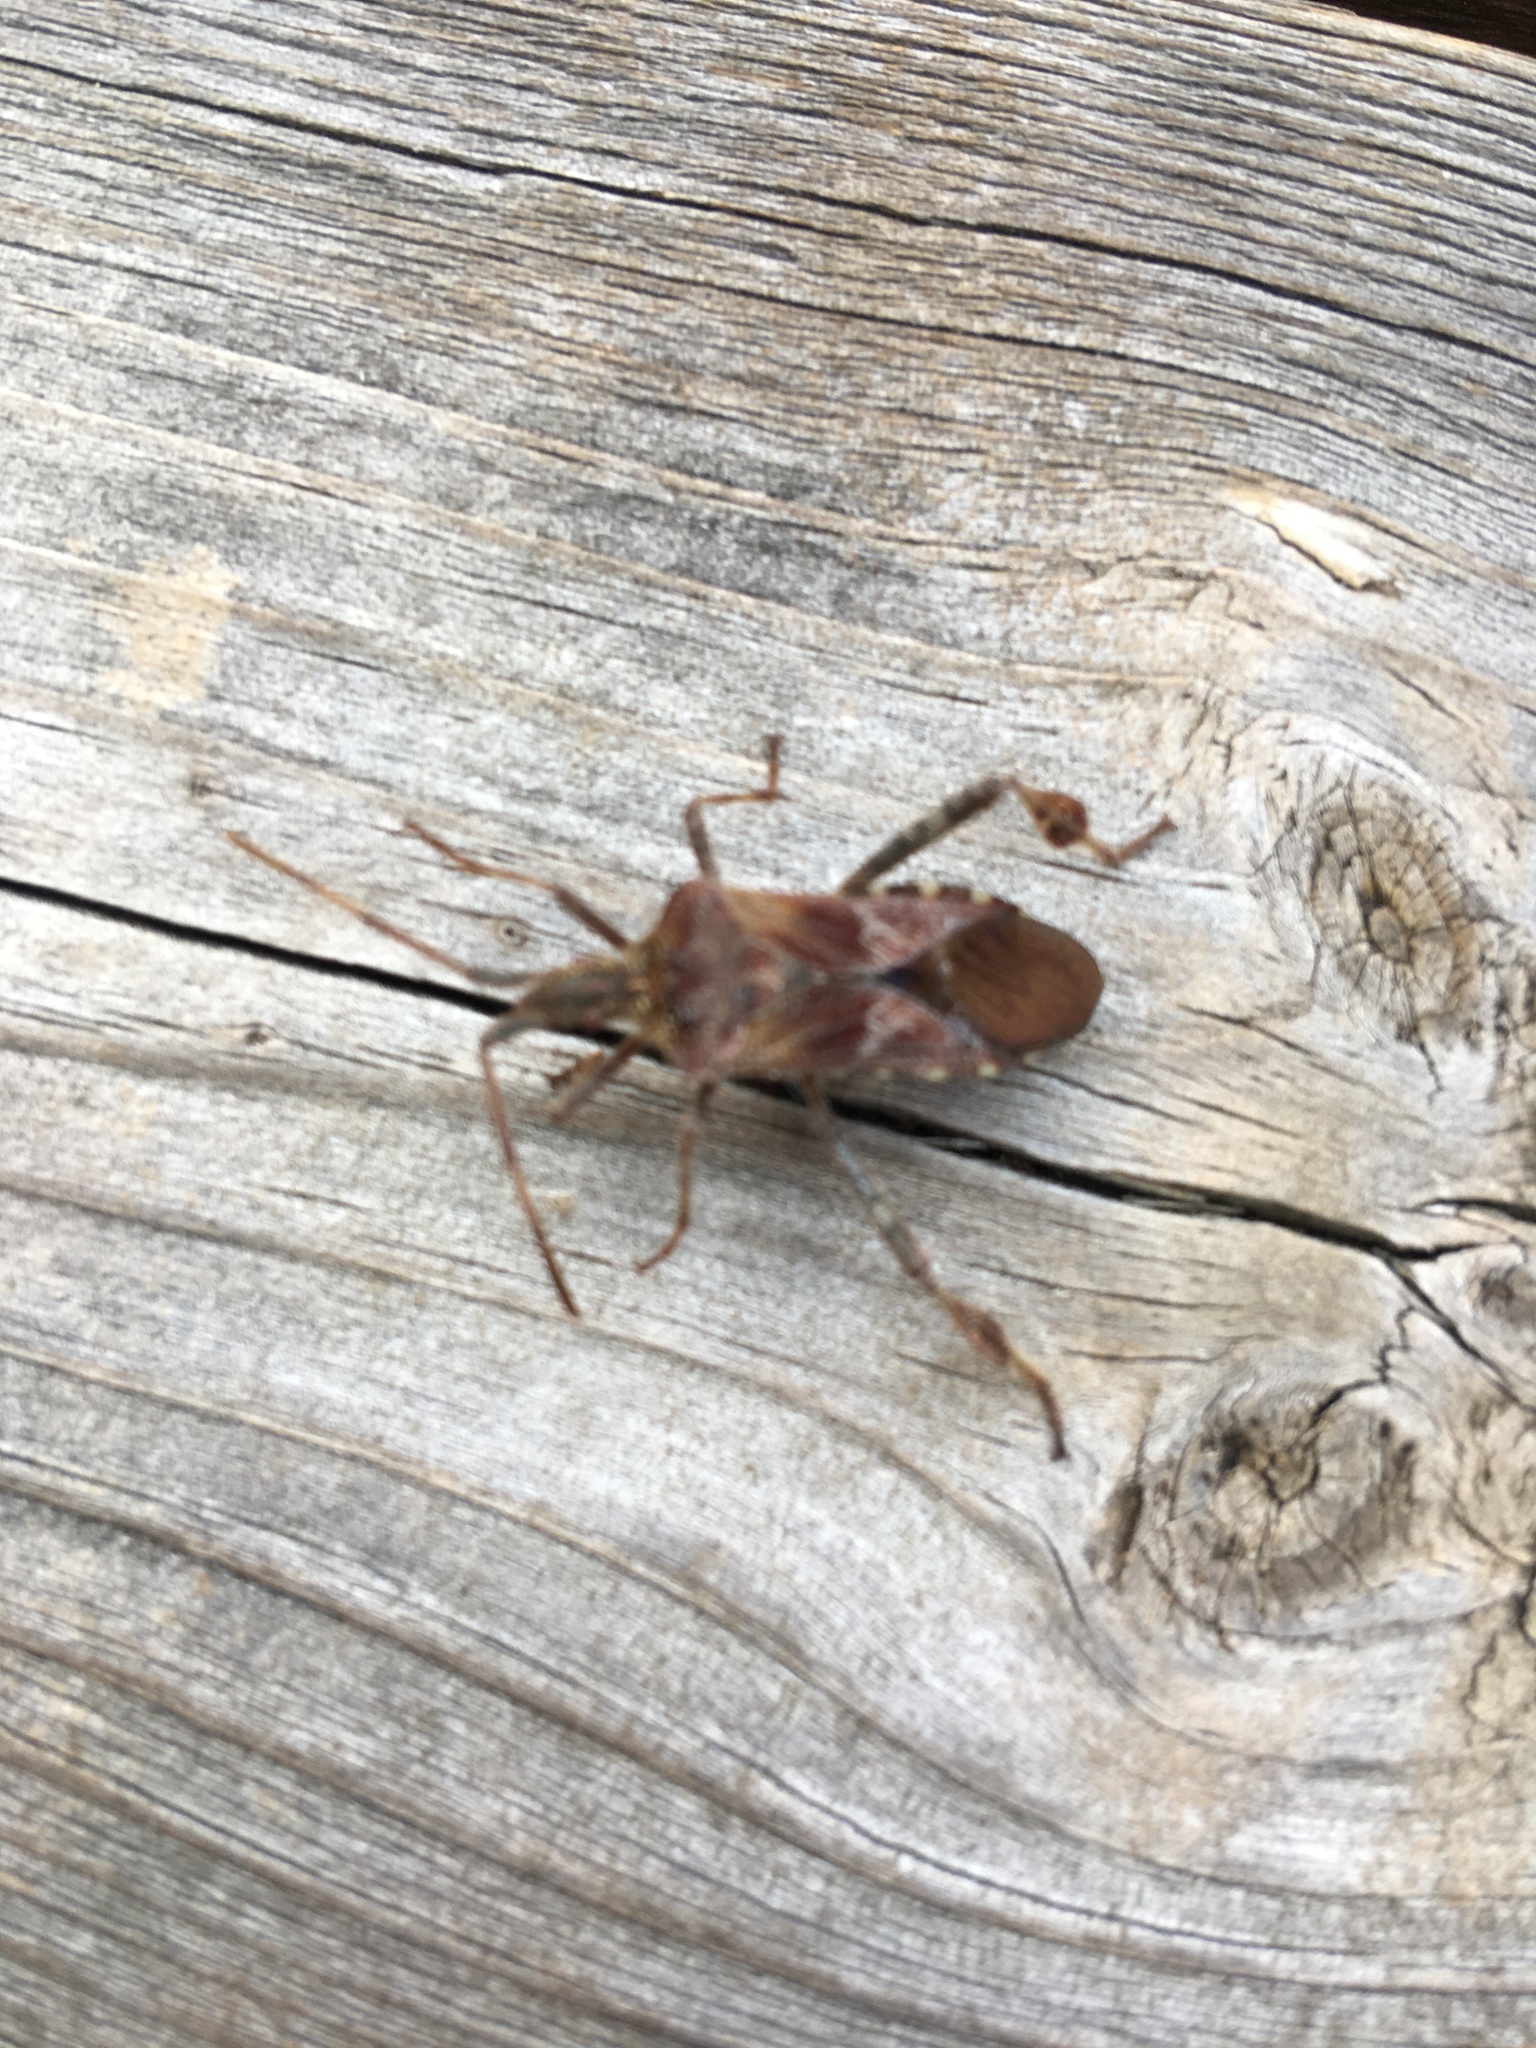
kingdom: Animalia
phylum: Arthropoda
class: Insecta
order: Hemiptera
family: Coreidae
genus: Leptoglossus
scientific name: Leptoglossus occidentalis
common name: Western conifer-seed bug
